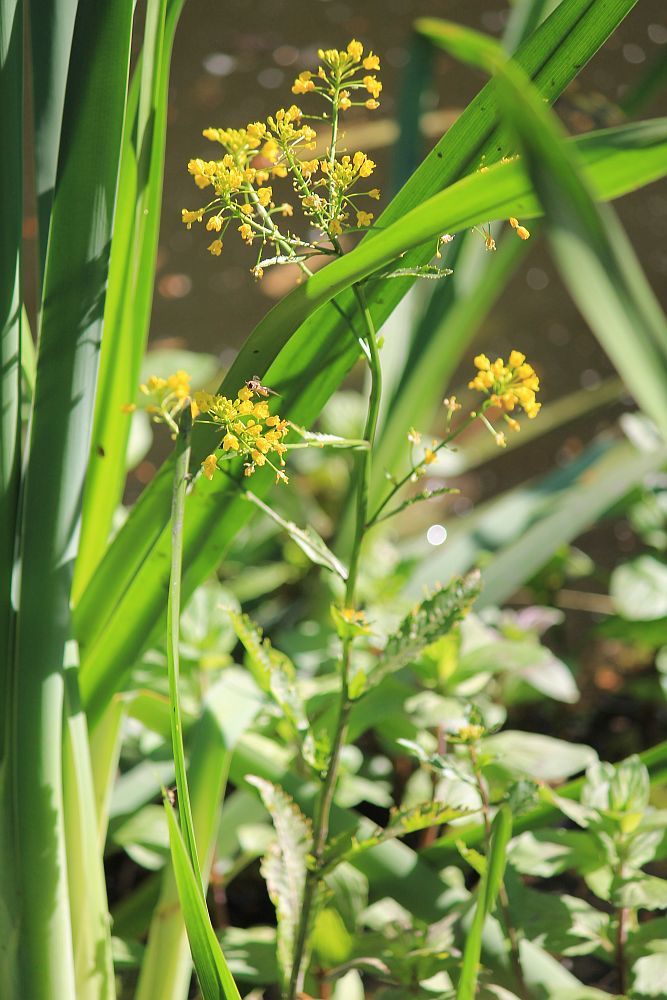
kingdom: Plantae
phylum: Tracheophyta
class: Magnoliopsida
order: Brassicales
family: Brassicaceae
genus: Rorippa
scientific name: Rorippa amphibia
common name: Great yellow-cress
